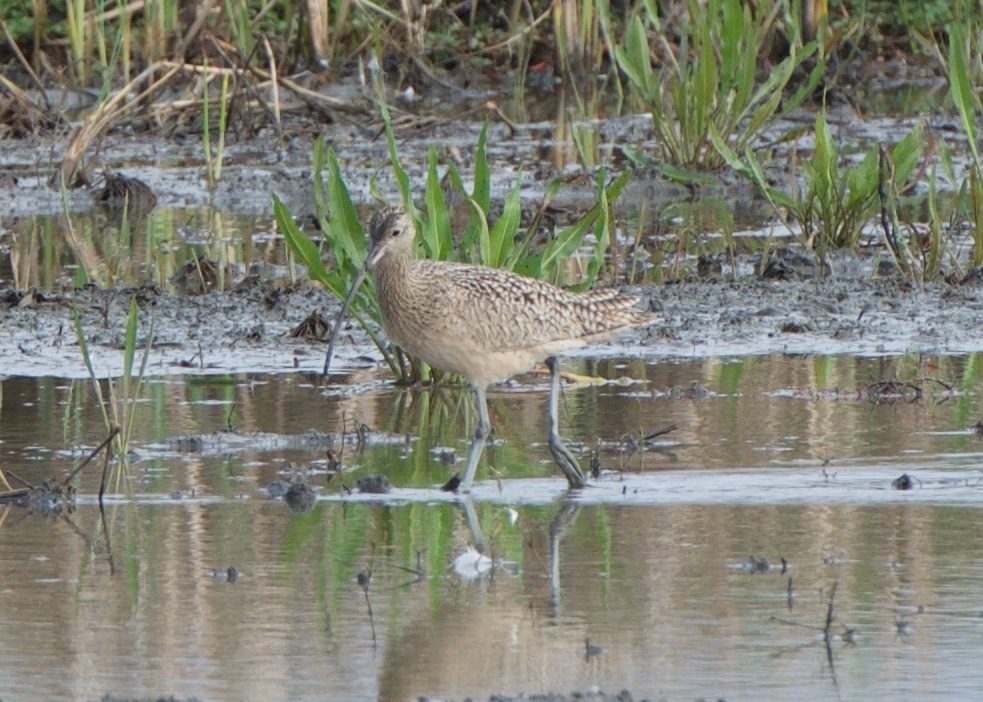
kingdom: Animalia
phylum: Chordata
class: Aves
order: Charadriiformes
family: Scolopacidae
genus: Numenius
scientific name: Numenius americanus
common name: Long-billed curlew
